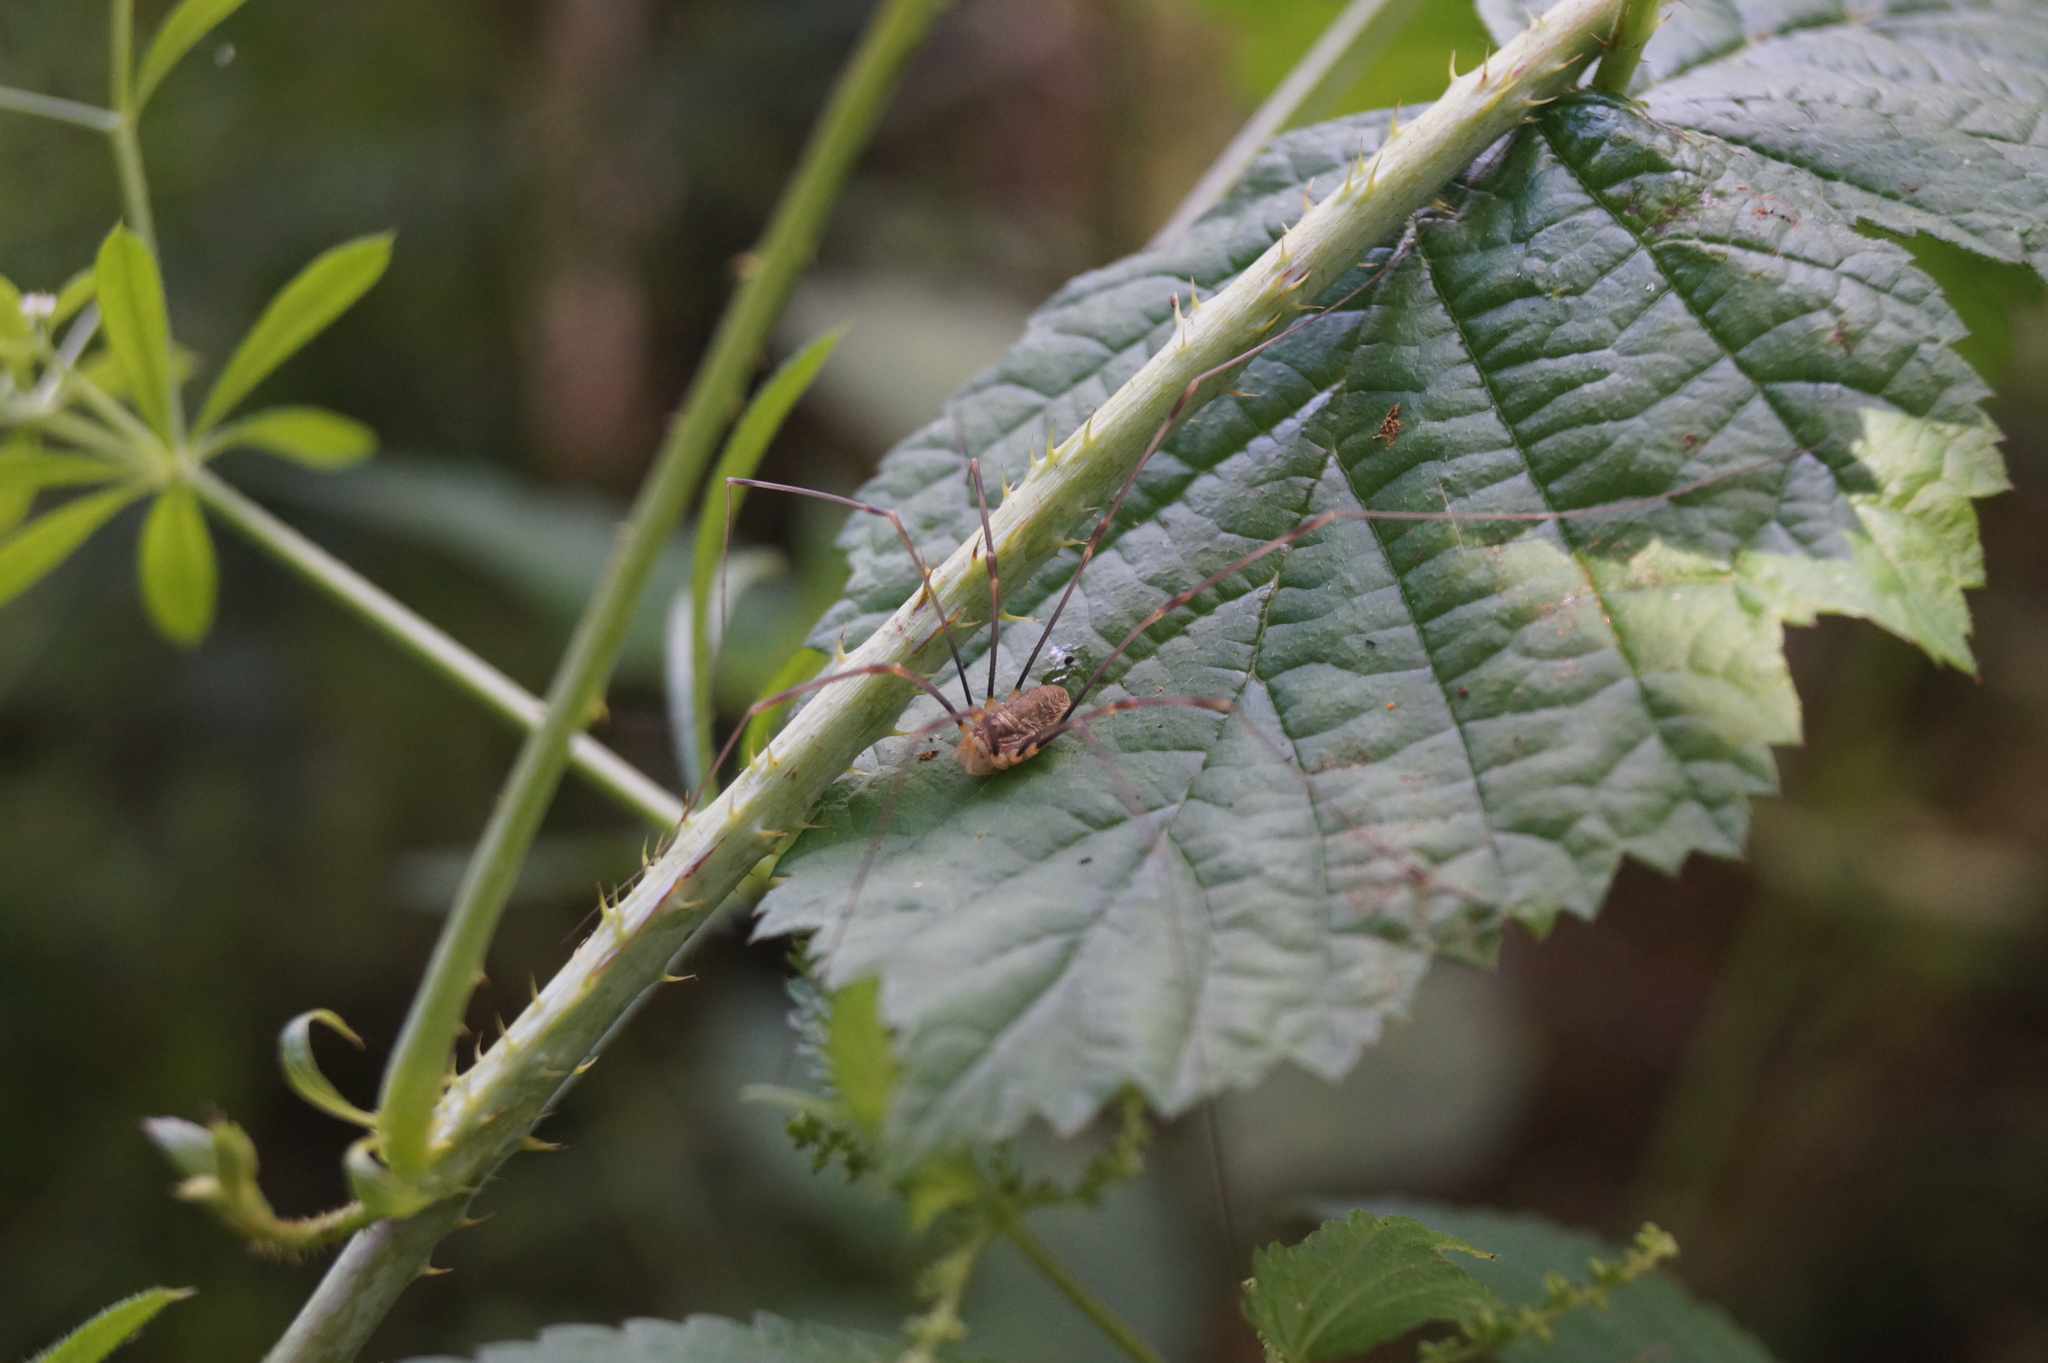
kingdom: Animalia
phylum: Arthropoda
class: Arachnida
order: Opiliones
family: Phalangiidae
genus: Opilio
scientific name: Opilio canestrinii
